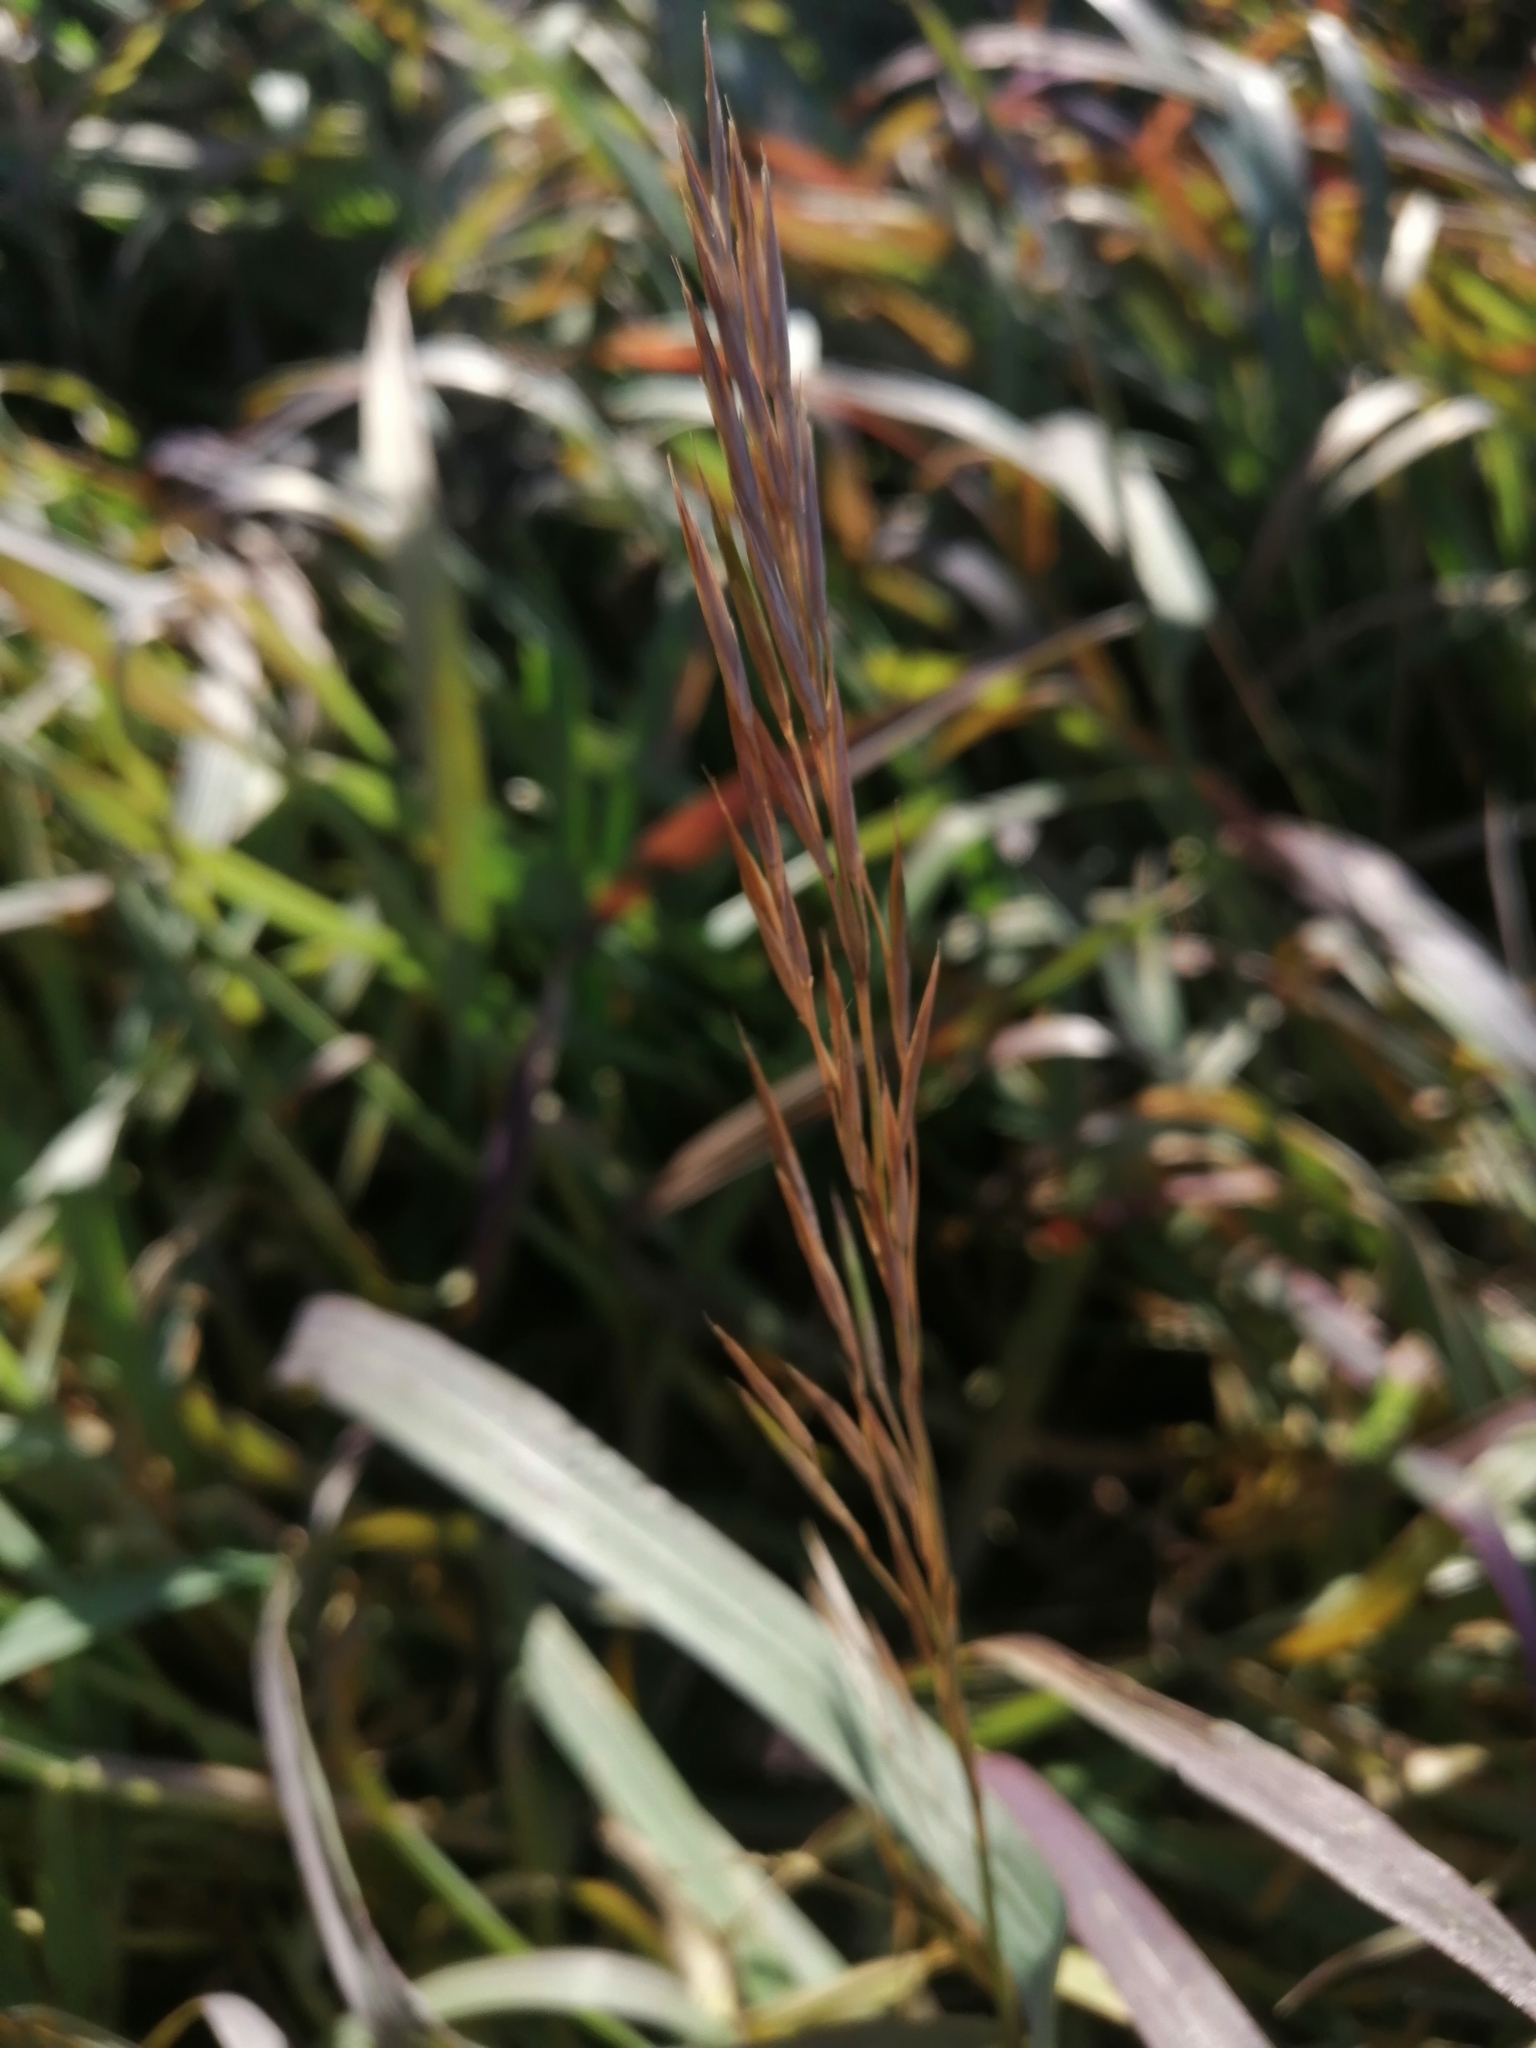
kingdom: Plantae
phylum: Tracheophyta
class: Liliopsida
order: Poales
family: Poaceae
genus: Bromus
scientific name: Bromus inermis
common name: Smooth brome
